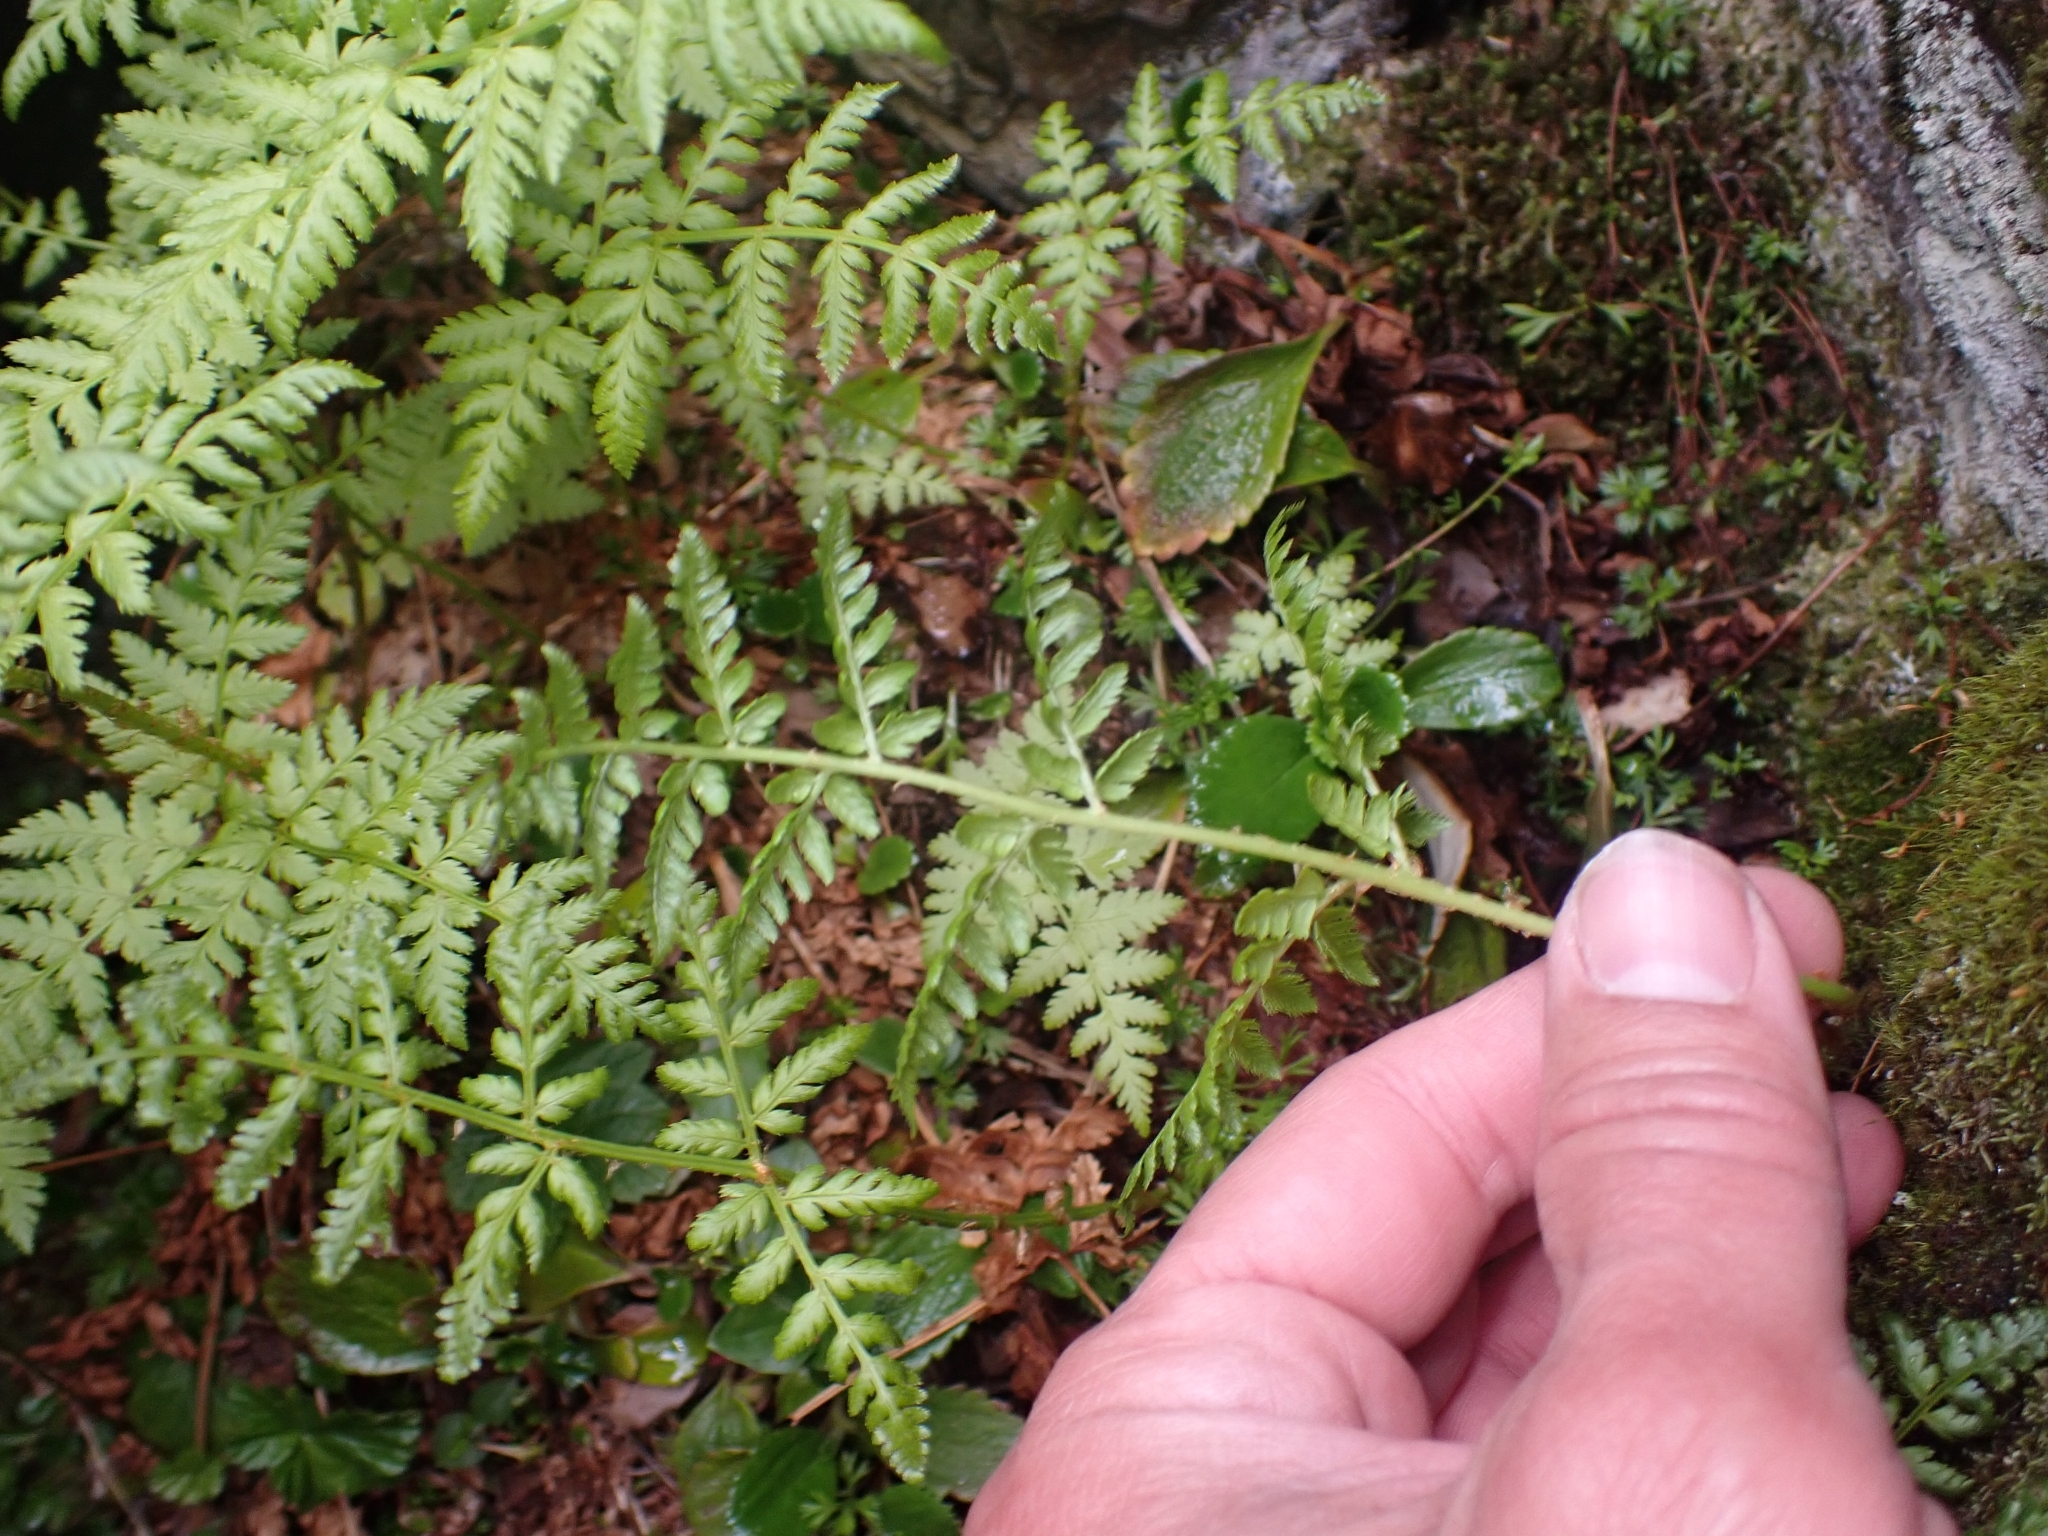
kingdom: Plantae
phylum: Tracheophyta
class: Polypodiopsida
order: Polypodiales
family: Cystopteridaceae
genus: Cystopteris
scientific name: Cystopteris fragilis
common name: Brittle bladder fern
